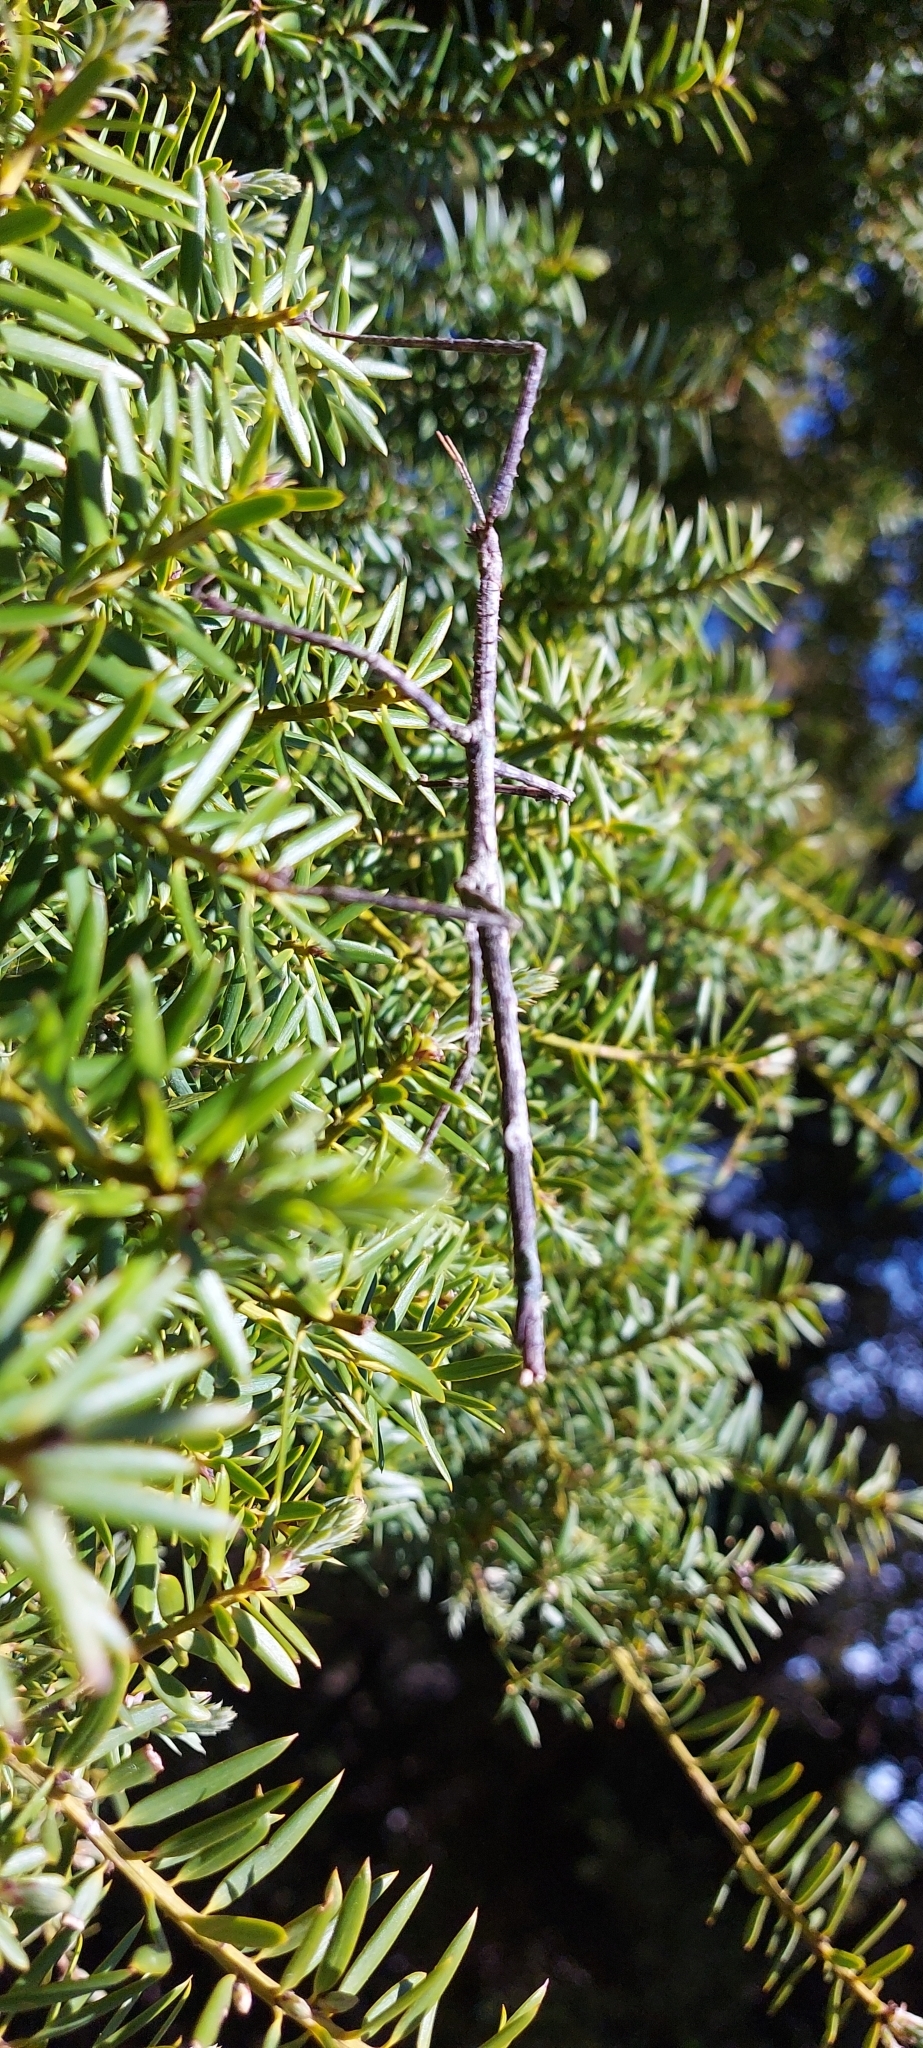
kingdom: Animalia
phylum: Arthropoda
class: Insecta
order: Phasmida
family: Phasmatidae
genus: Argosarchus
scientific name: Argosarchus horridus
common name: Bristly stick insect
